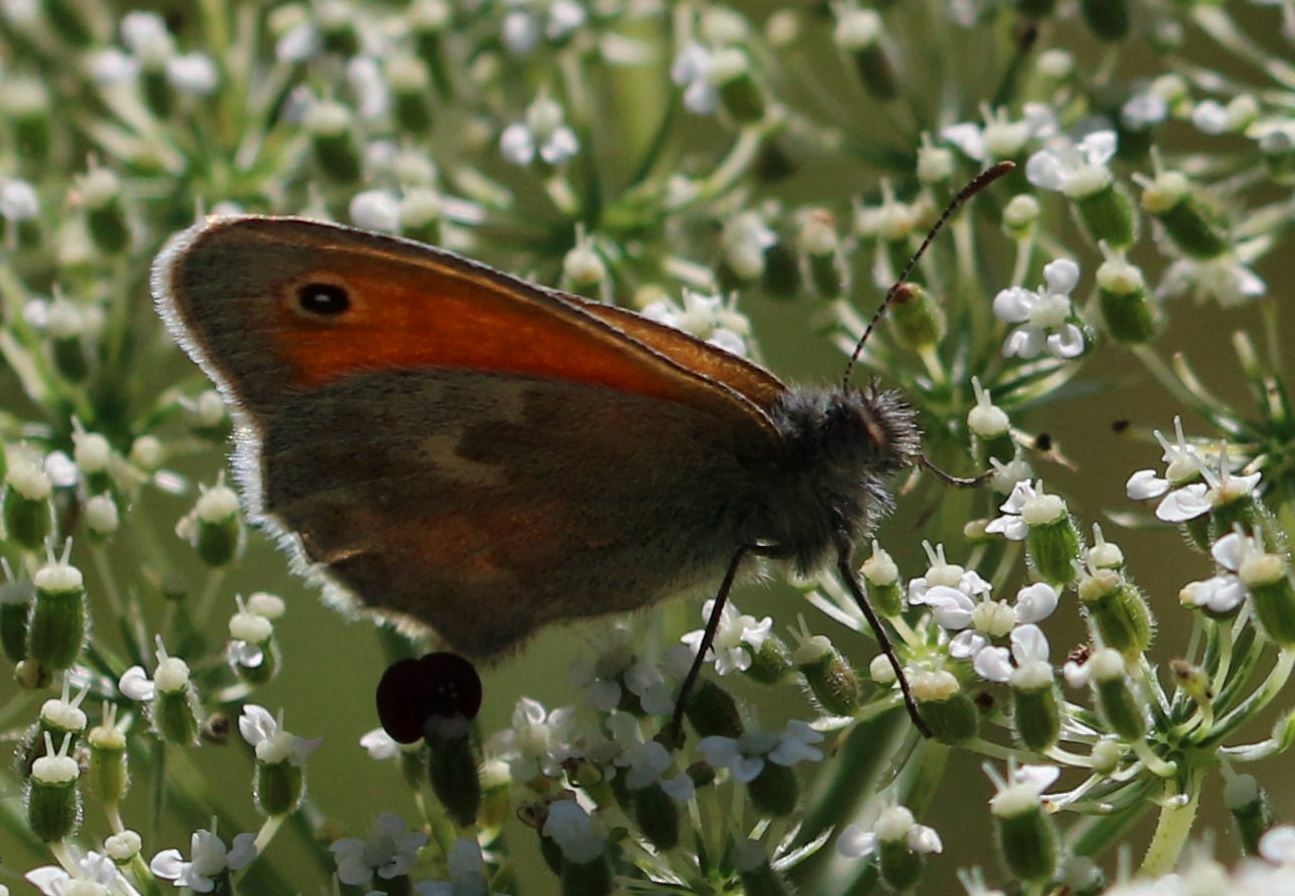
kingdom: Animalia
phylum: Arthropoda
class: Insecta
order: Lepidoptera
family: Nymphalidae
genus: Coenonympha
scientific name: Coenonympha pamphilus
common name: Small heath
